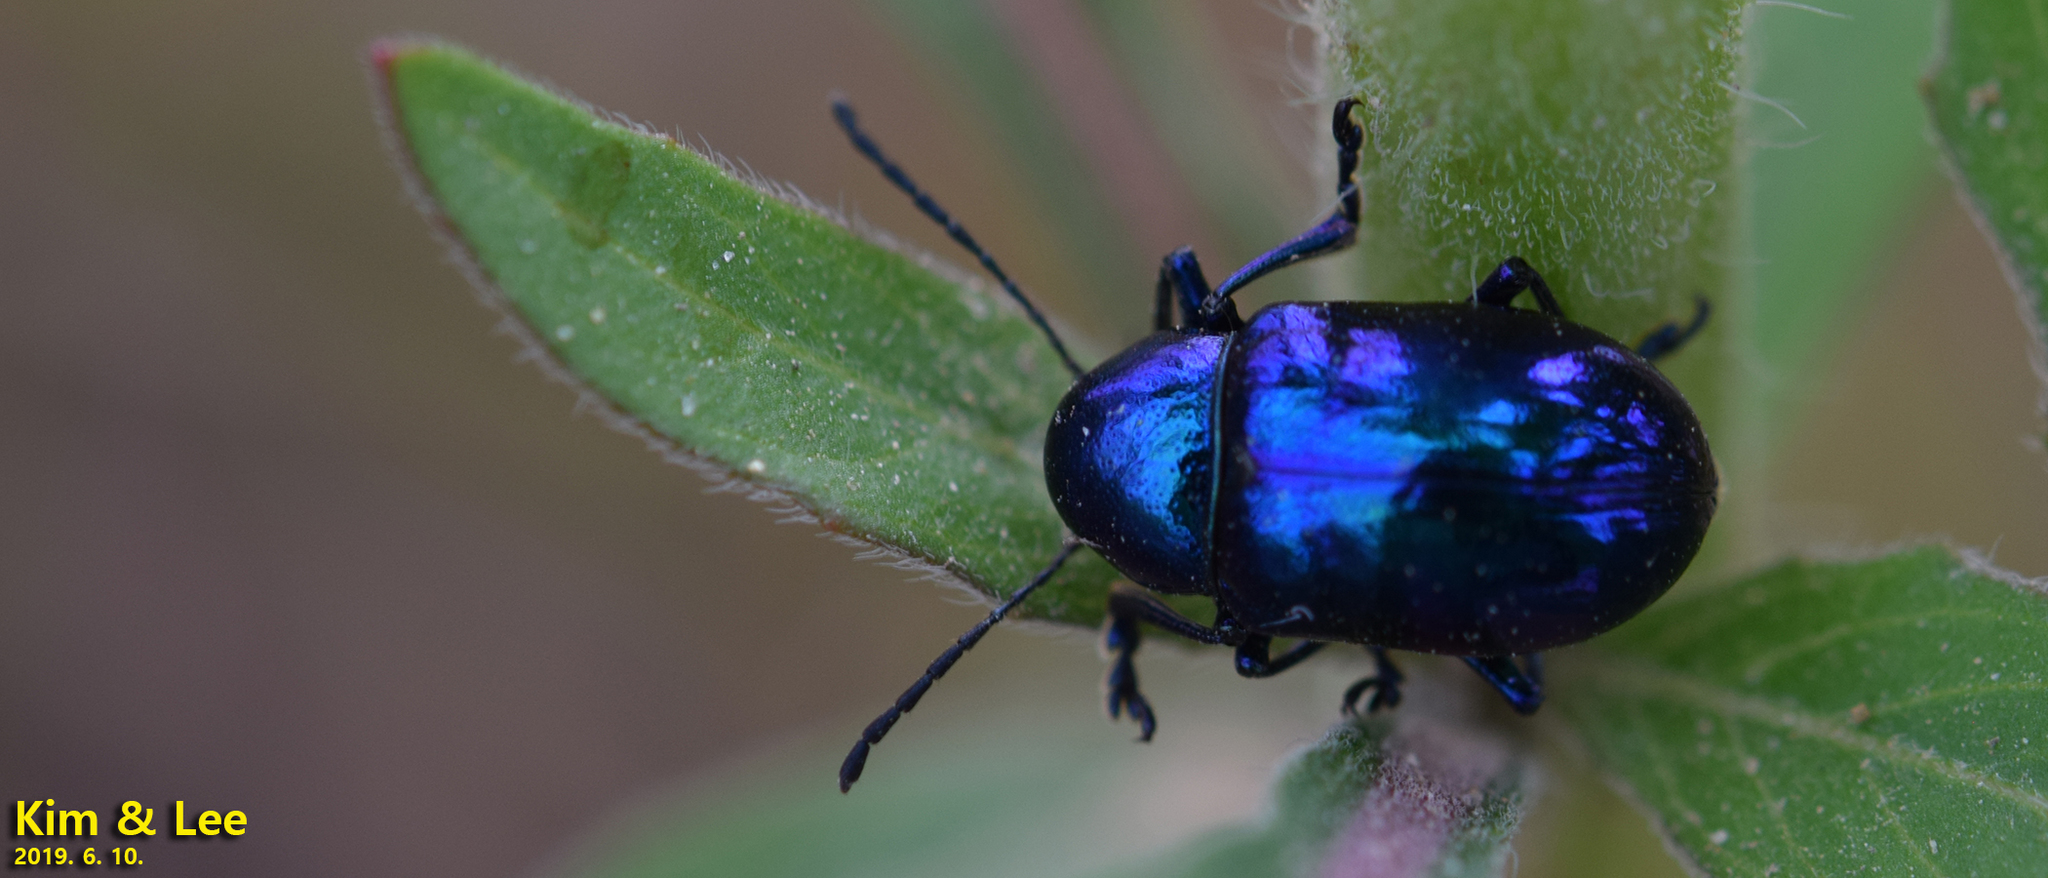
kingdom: Animalia
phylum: Arthropoda
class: Insecta
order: Coleoptera
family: Chrysomelidae
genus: Chrysochus
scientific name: Chrysochus chinensis
